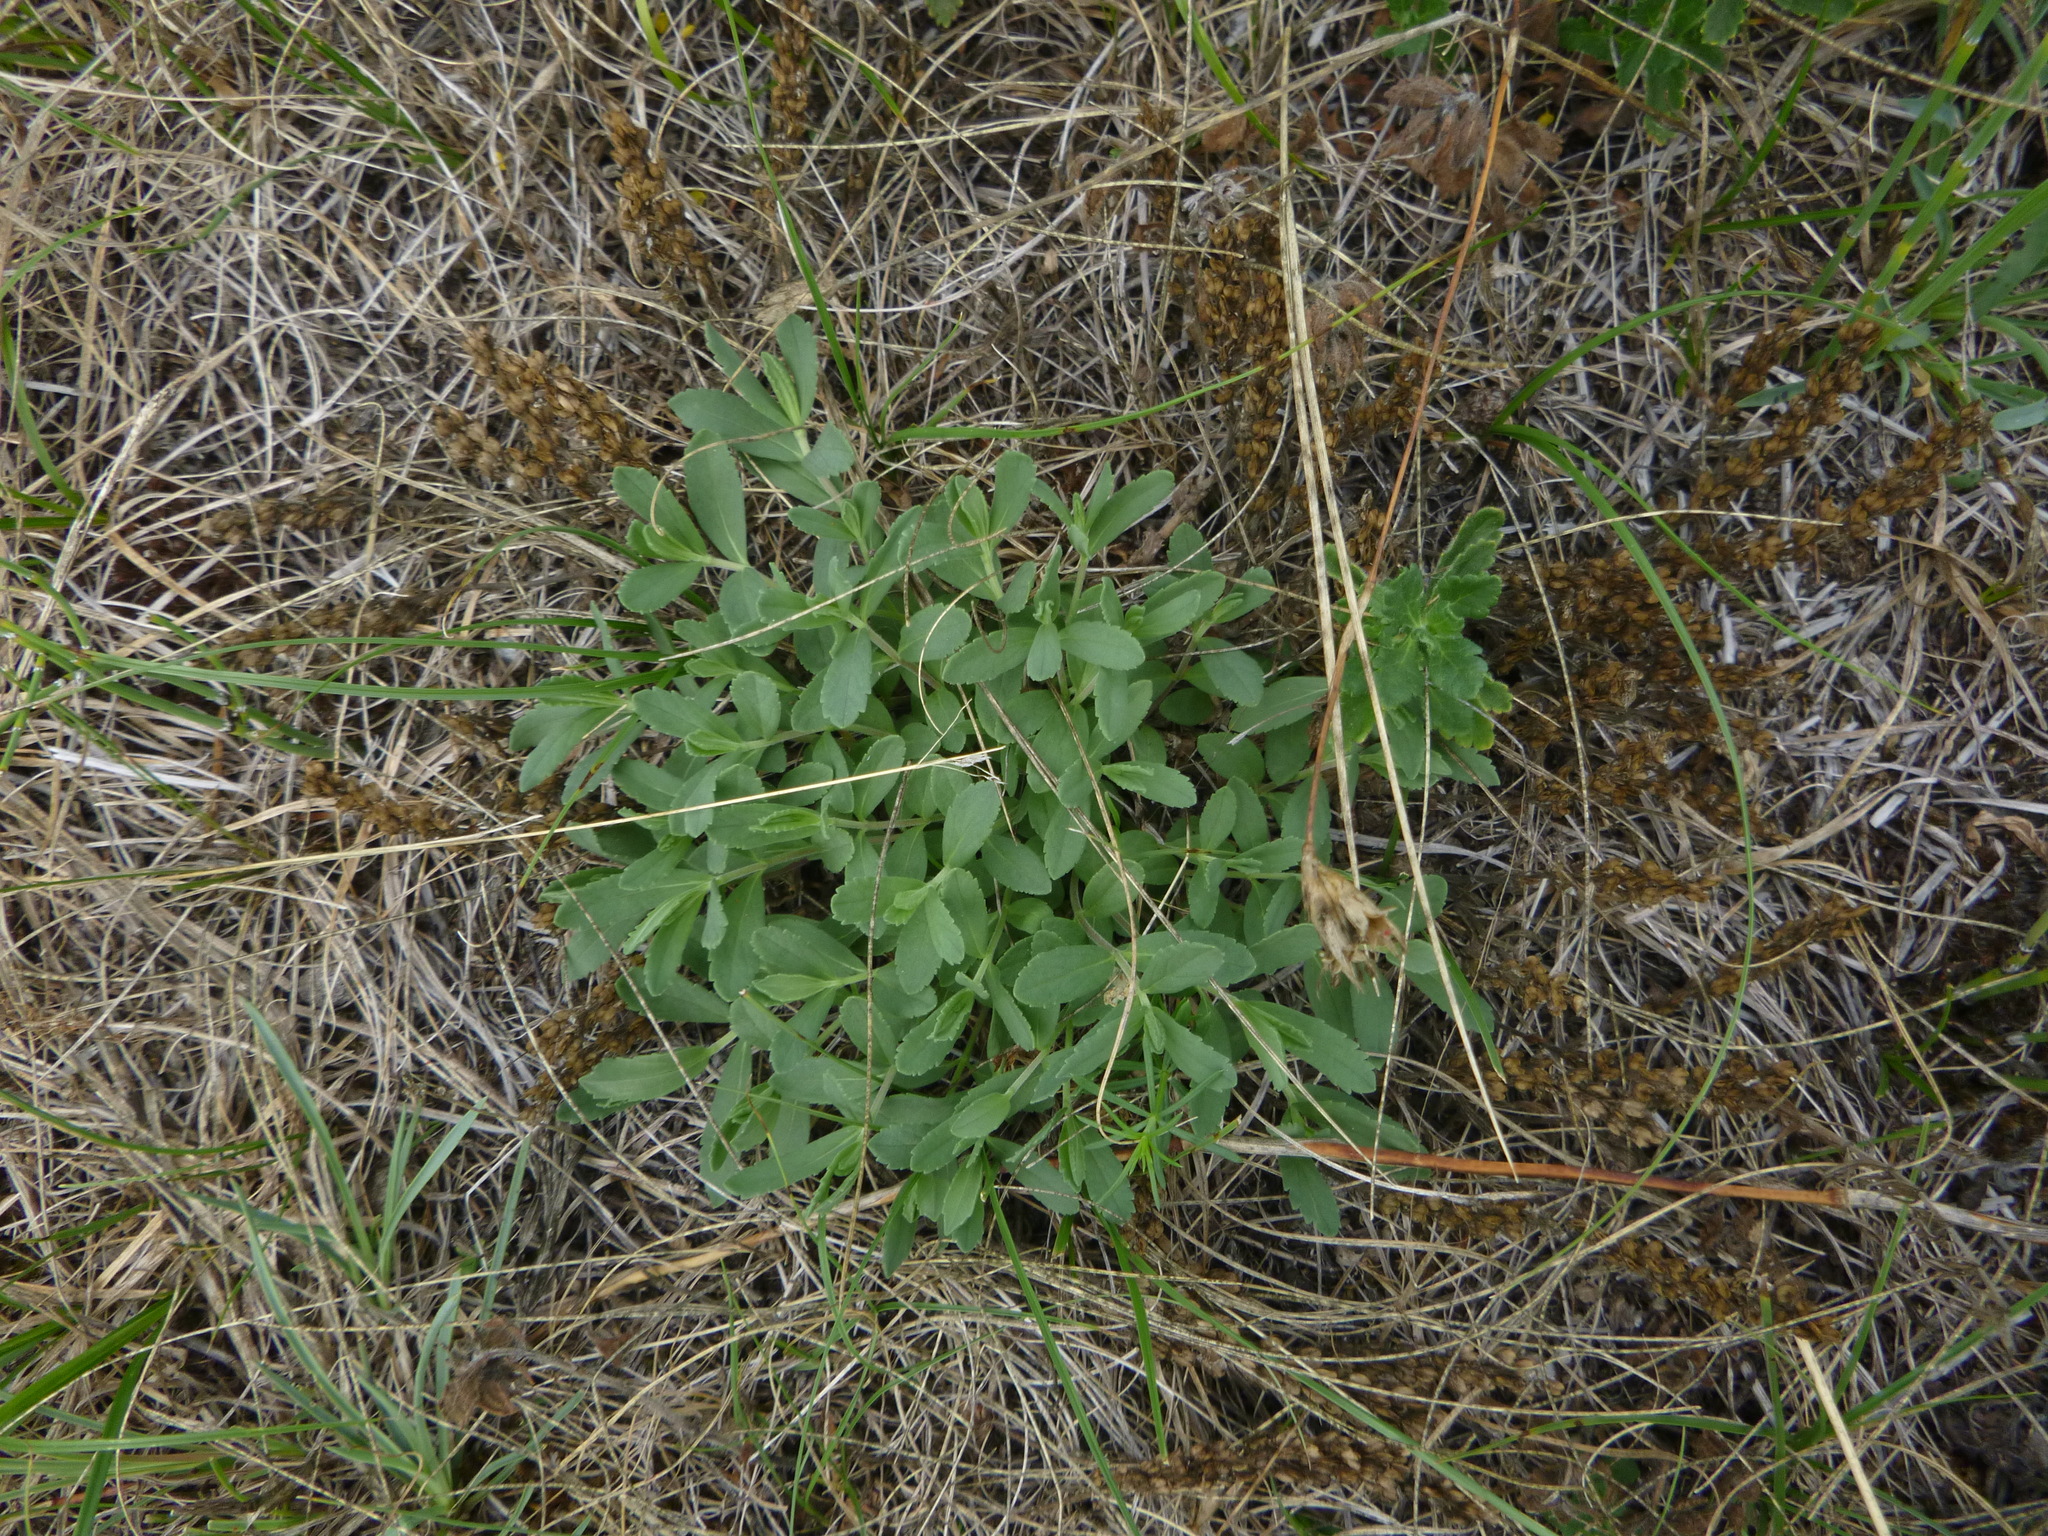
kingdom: Plantae
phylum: Tracheophyta
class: Magnoliopsida
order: Lamiales
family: Plantaginaceae
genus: Veronica
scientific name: Veronica prostrata
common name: Prostrate speedwell
